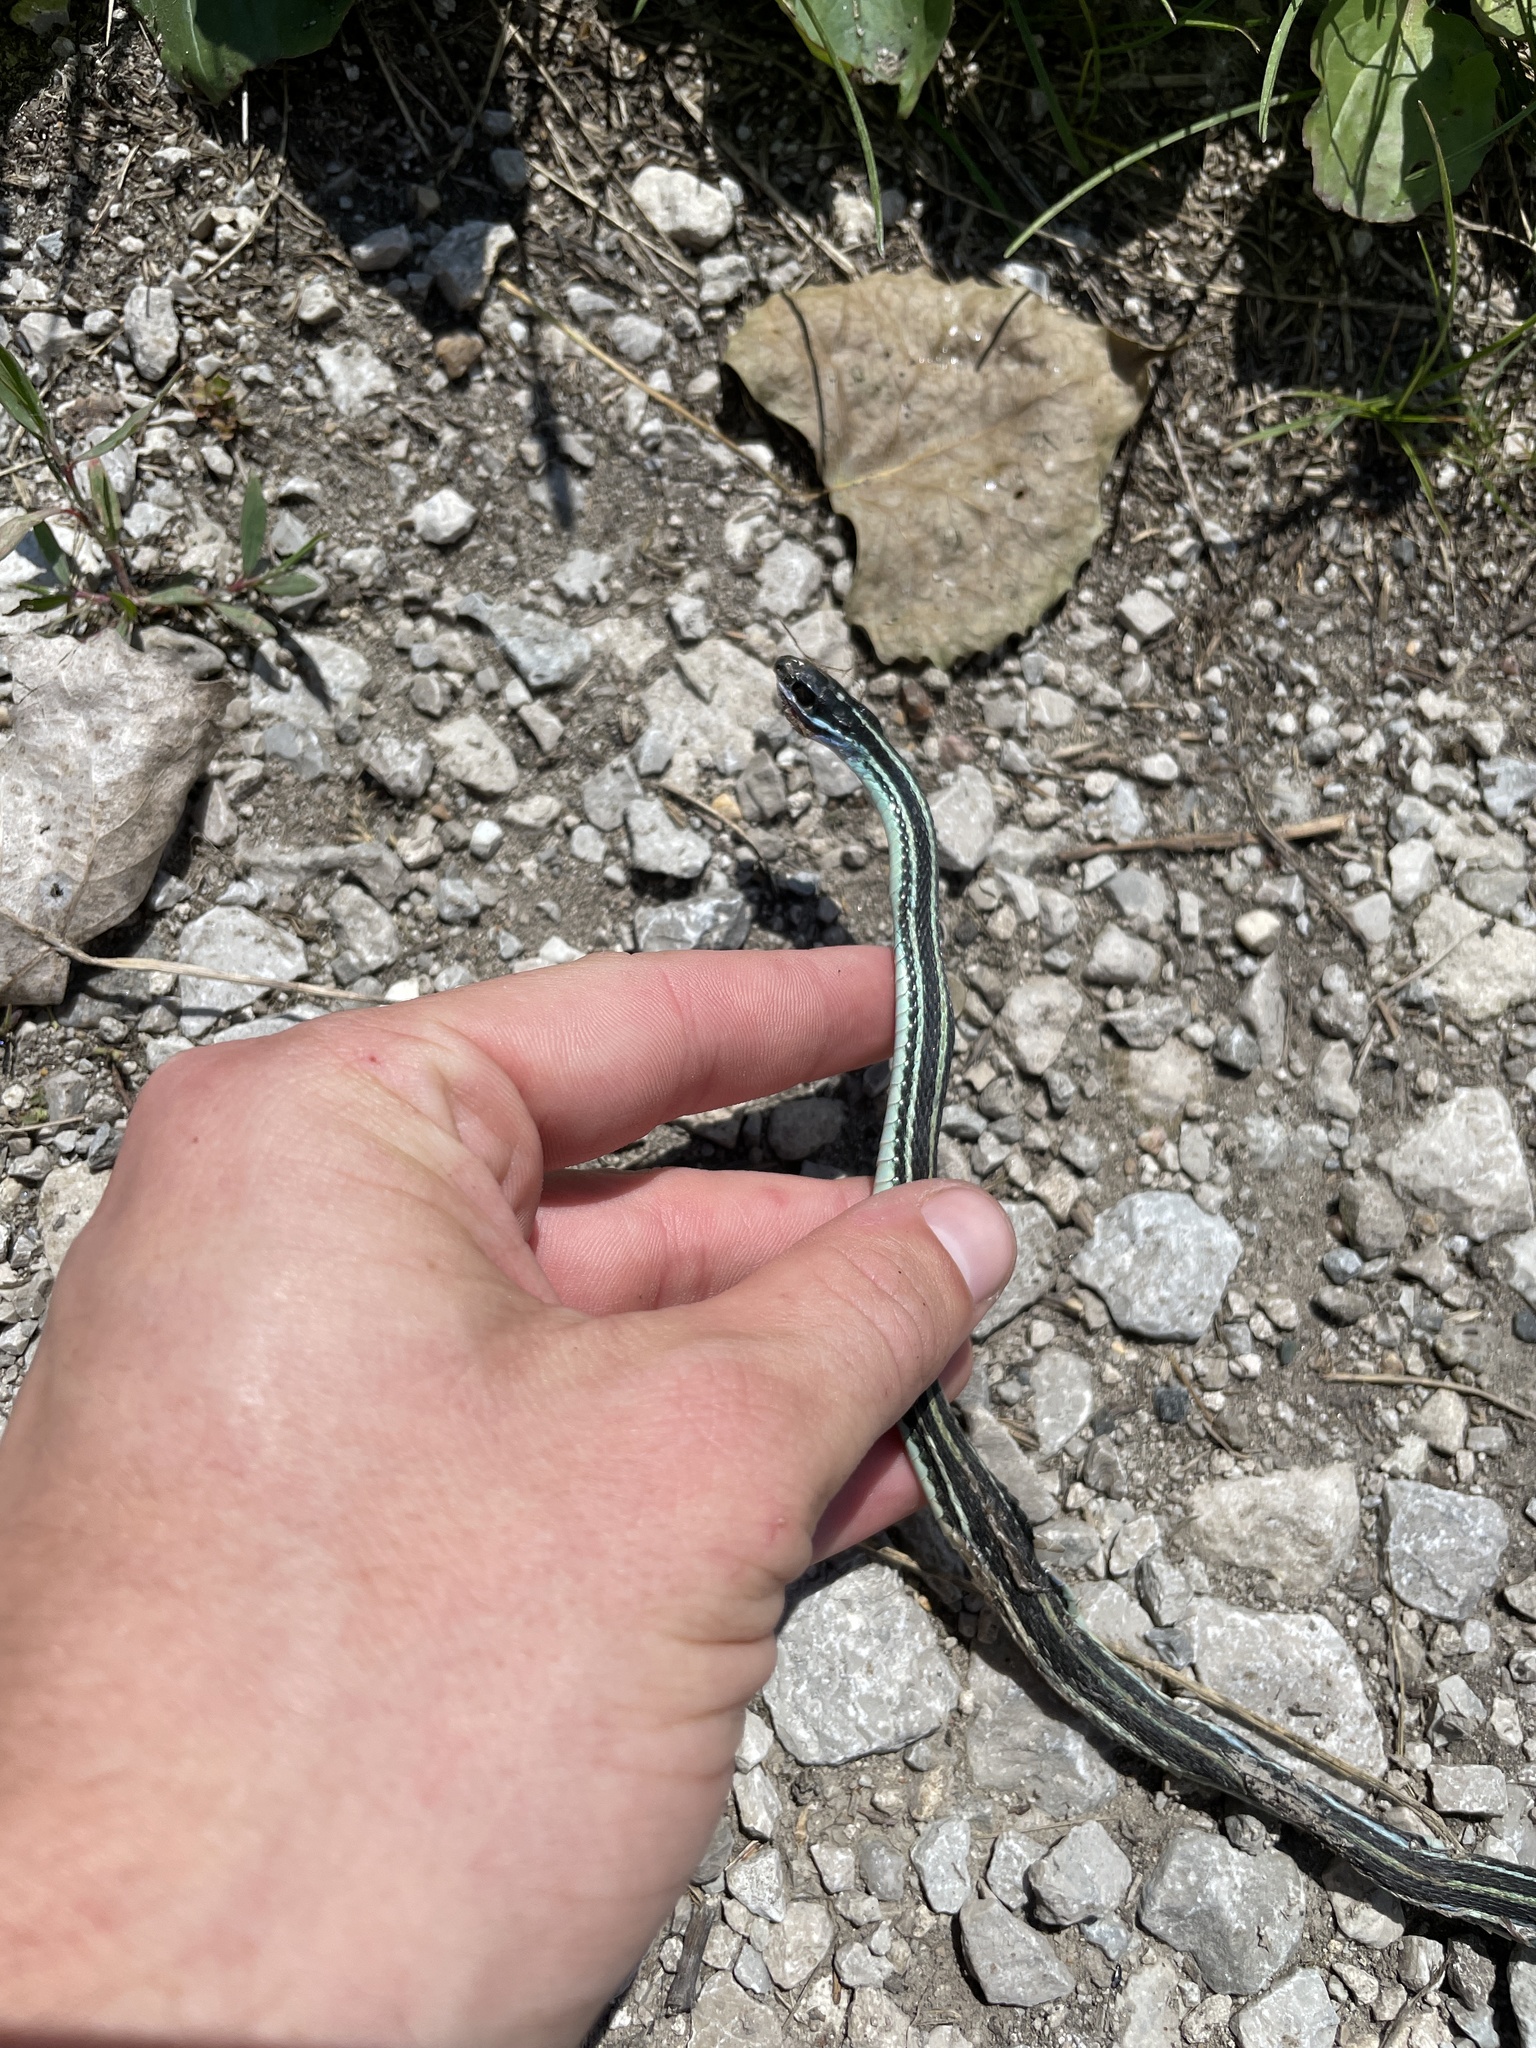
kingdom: Animalia
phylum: Chordata
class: Squamata
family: Colubridae
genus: Thamnophis
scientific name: Thamnophis proximus
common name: Western ribbon snake
